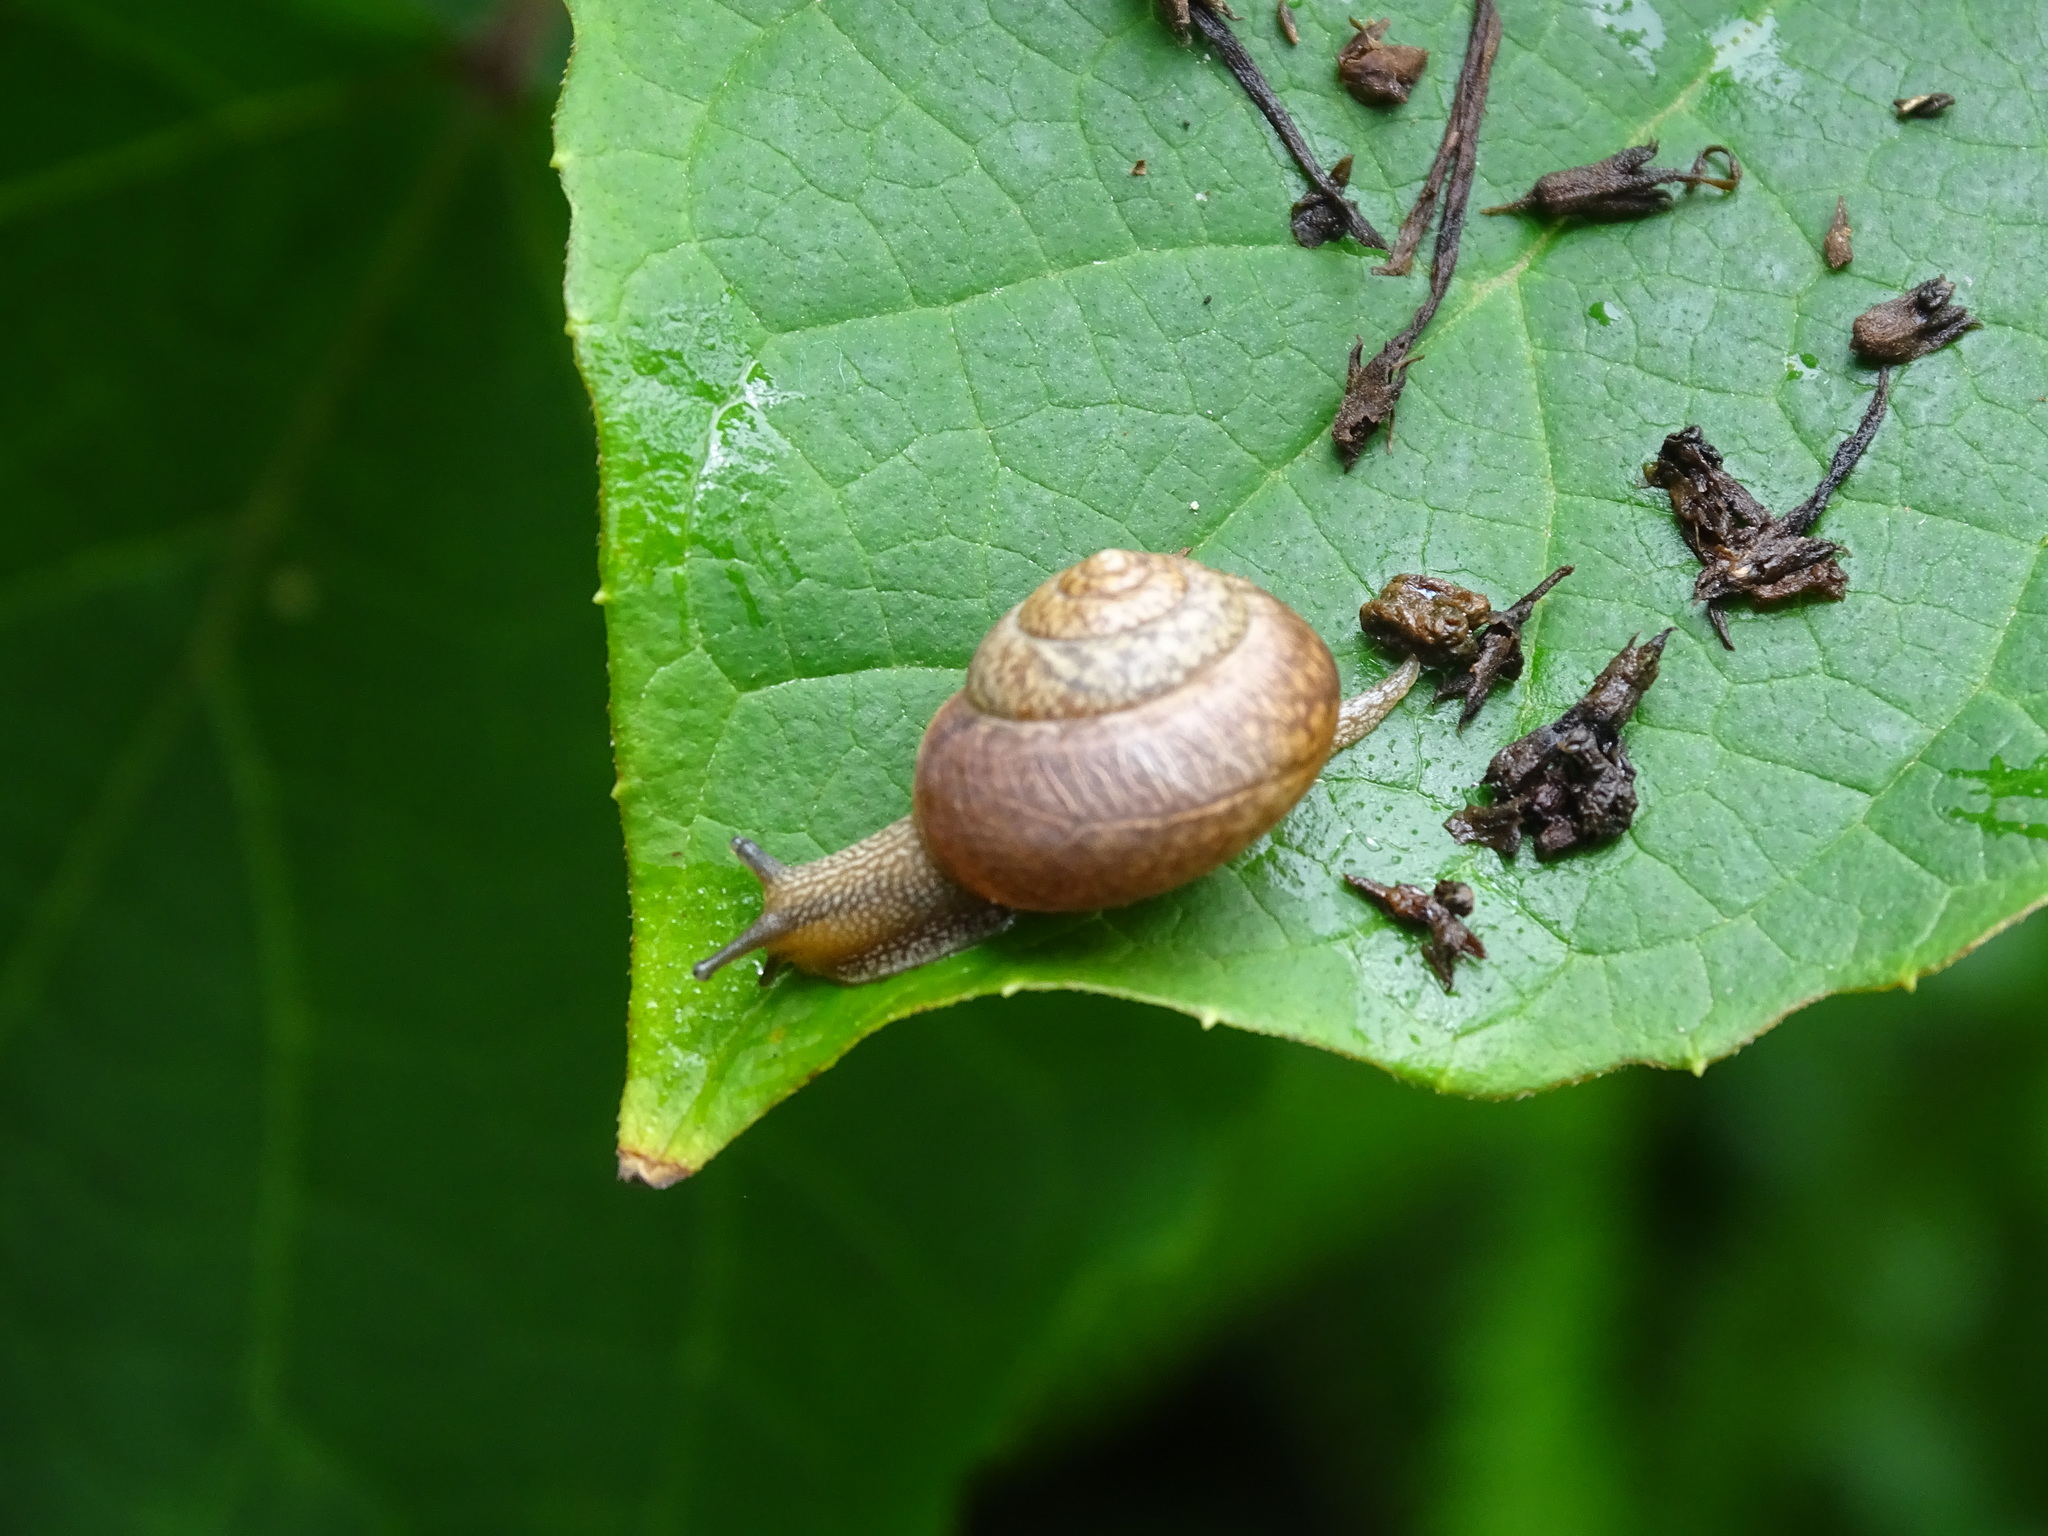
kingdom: Animalia
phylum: Mollusca
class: Gastropoda
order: Stylommatophora
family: Camaenidae
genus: Bradybaena
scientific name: Bradybaena similaris
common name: Asian trampsnail
